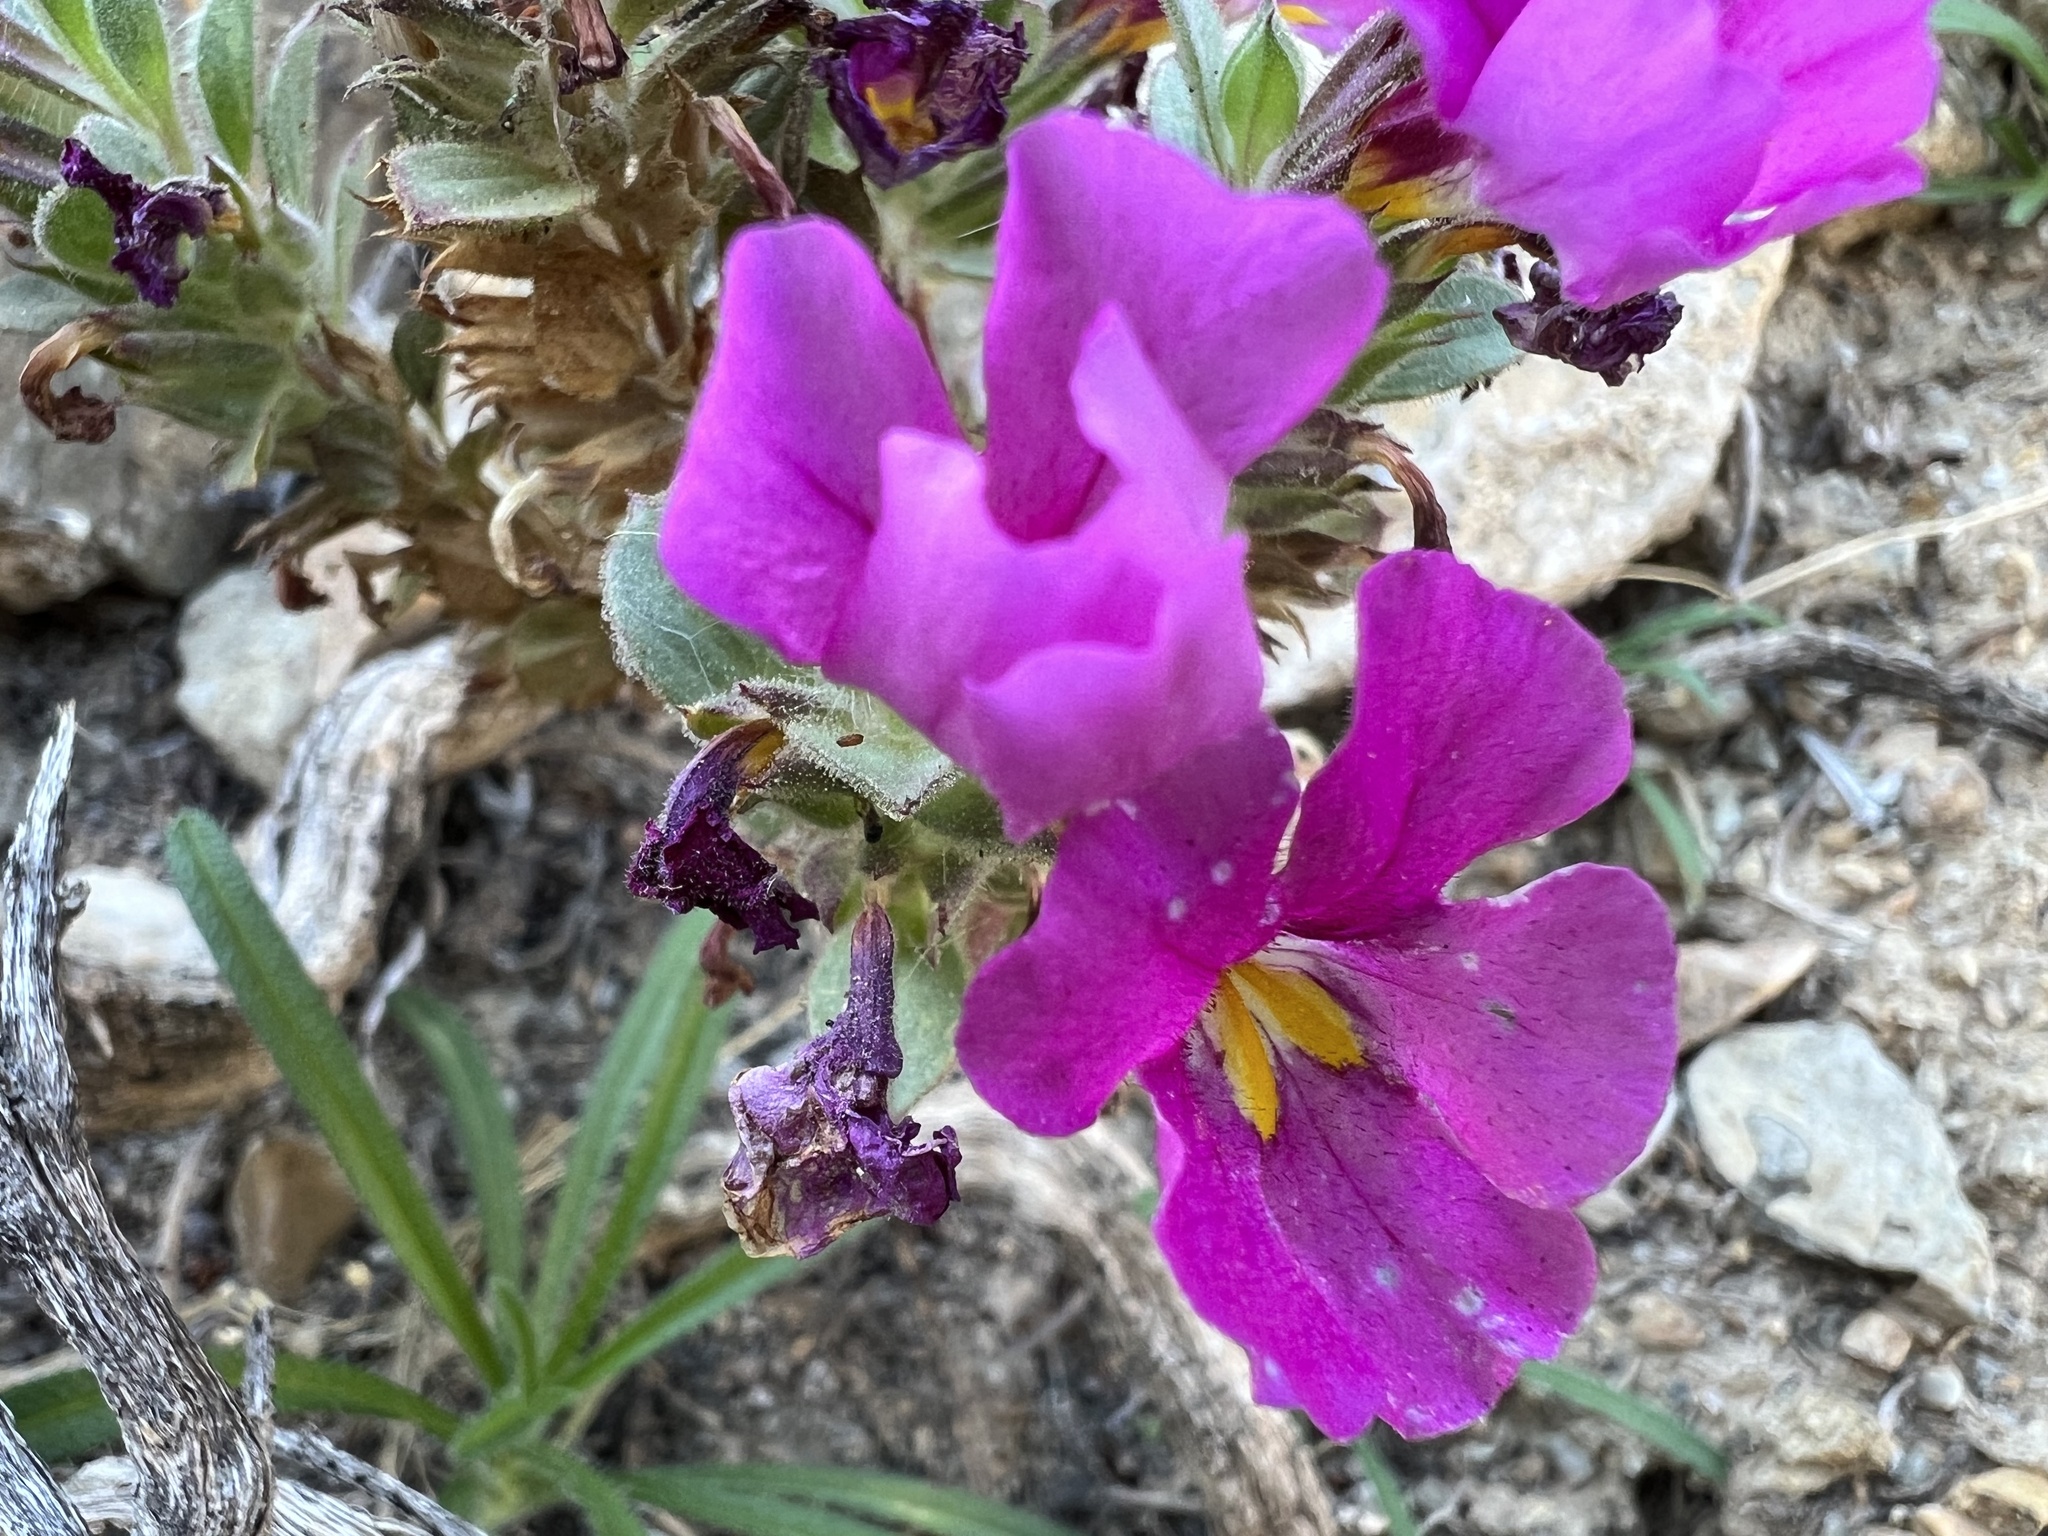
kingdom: Plantae
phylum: Tracheophyta
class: Magnoliopsida
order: Lamiales
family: Phrymaceae
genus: Diplacus
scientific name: Diplacus bigelovii
